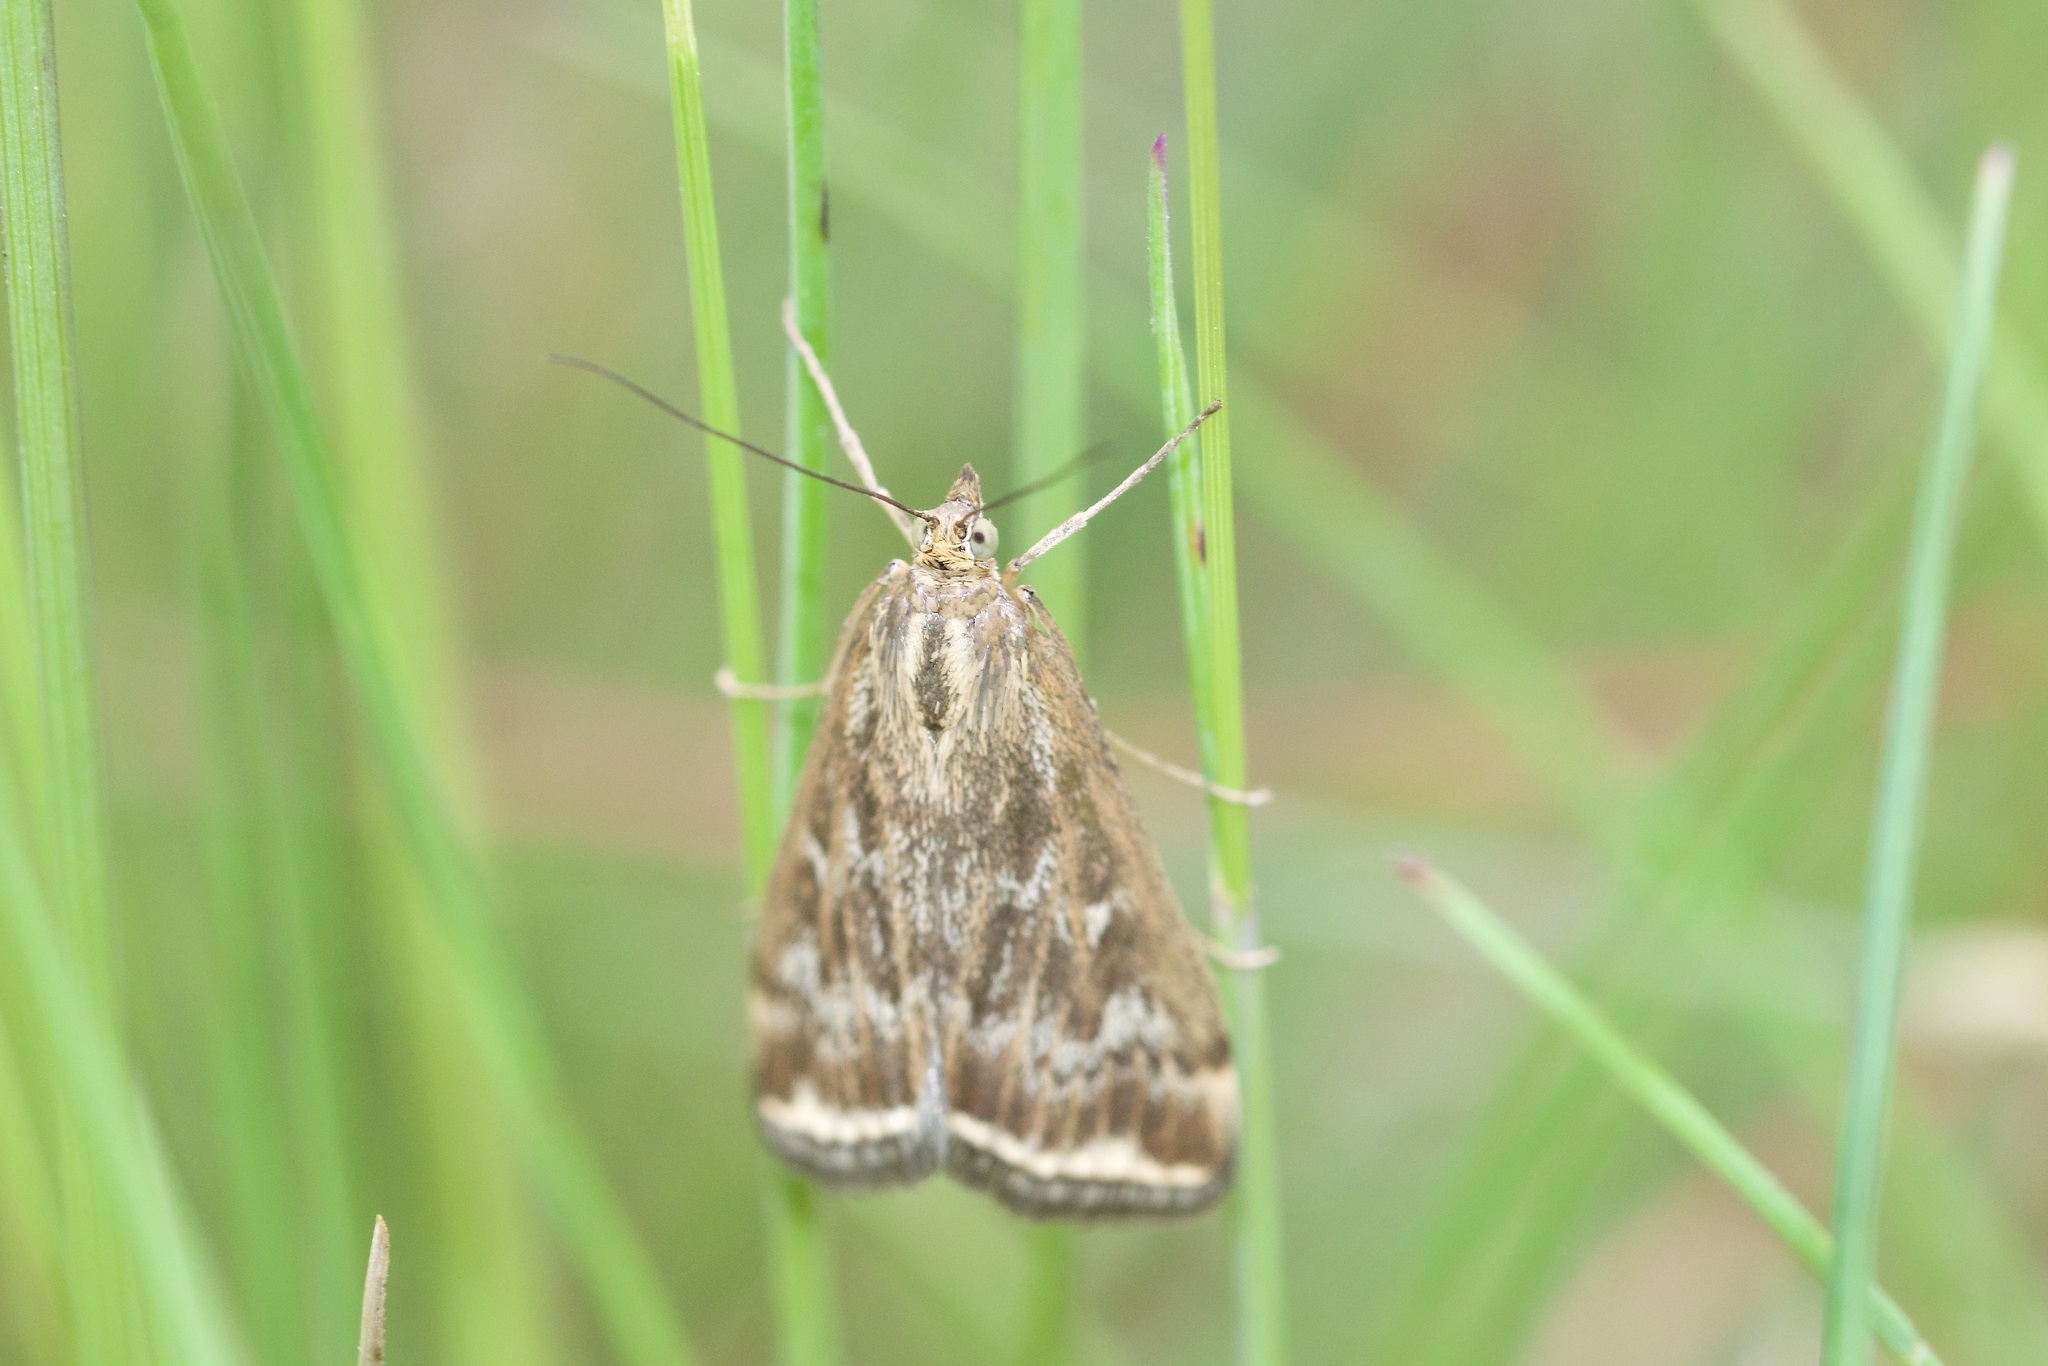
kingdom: Animalia
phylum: Arthropoda
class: Insecta
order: Lepidoptera
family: Crambidae
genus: Loxostege
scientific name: Loxostege cereralis
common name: Alfalfa webworm moth
